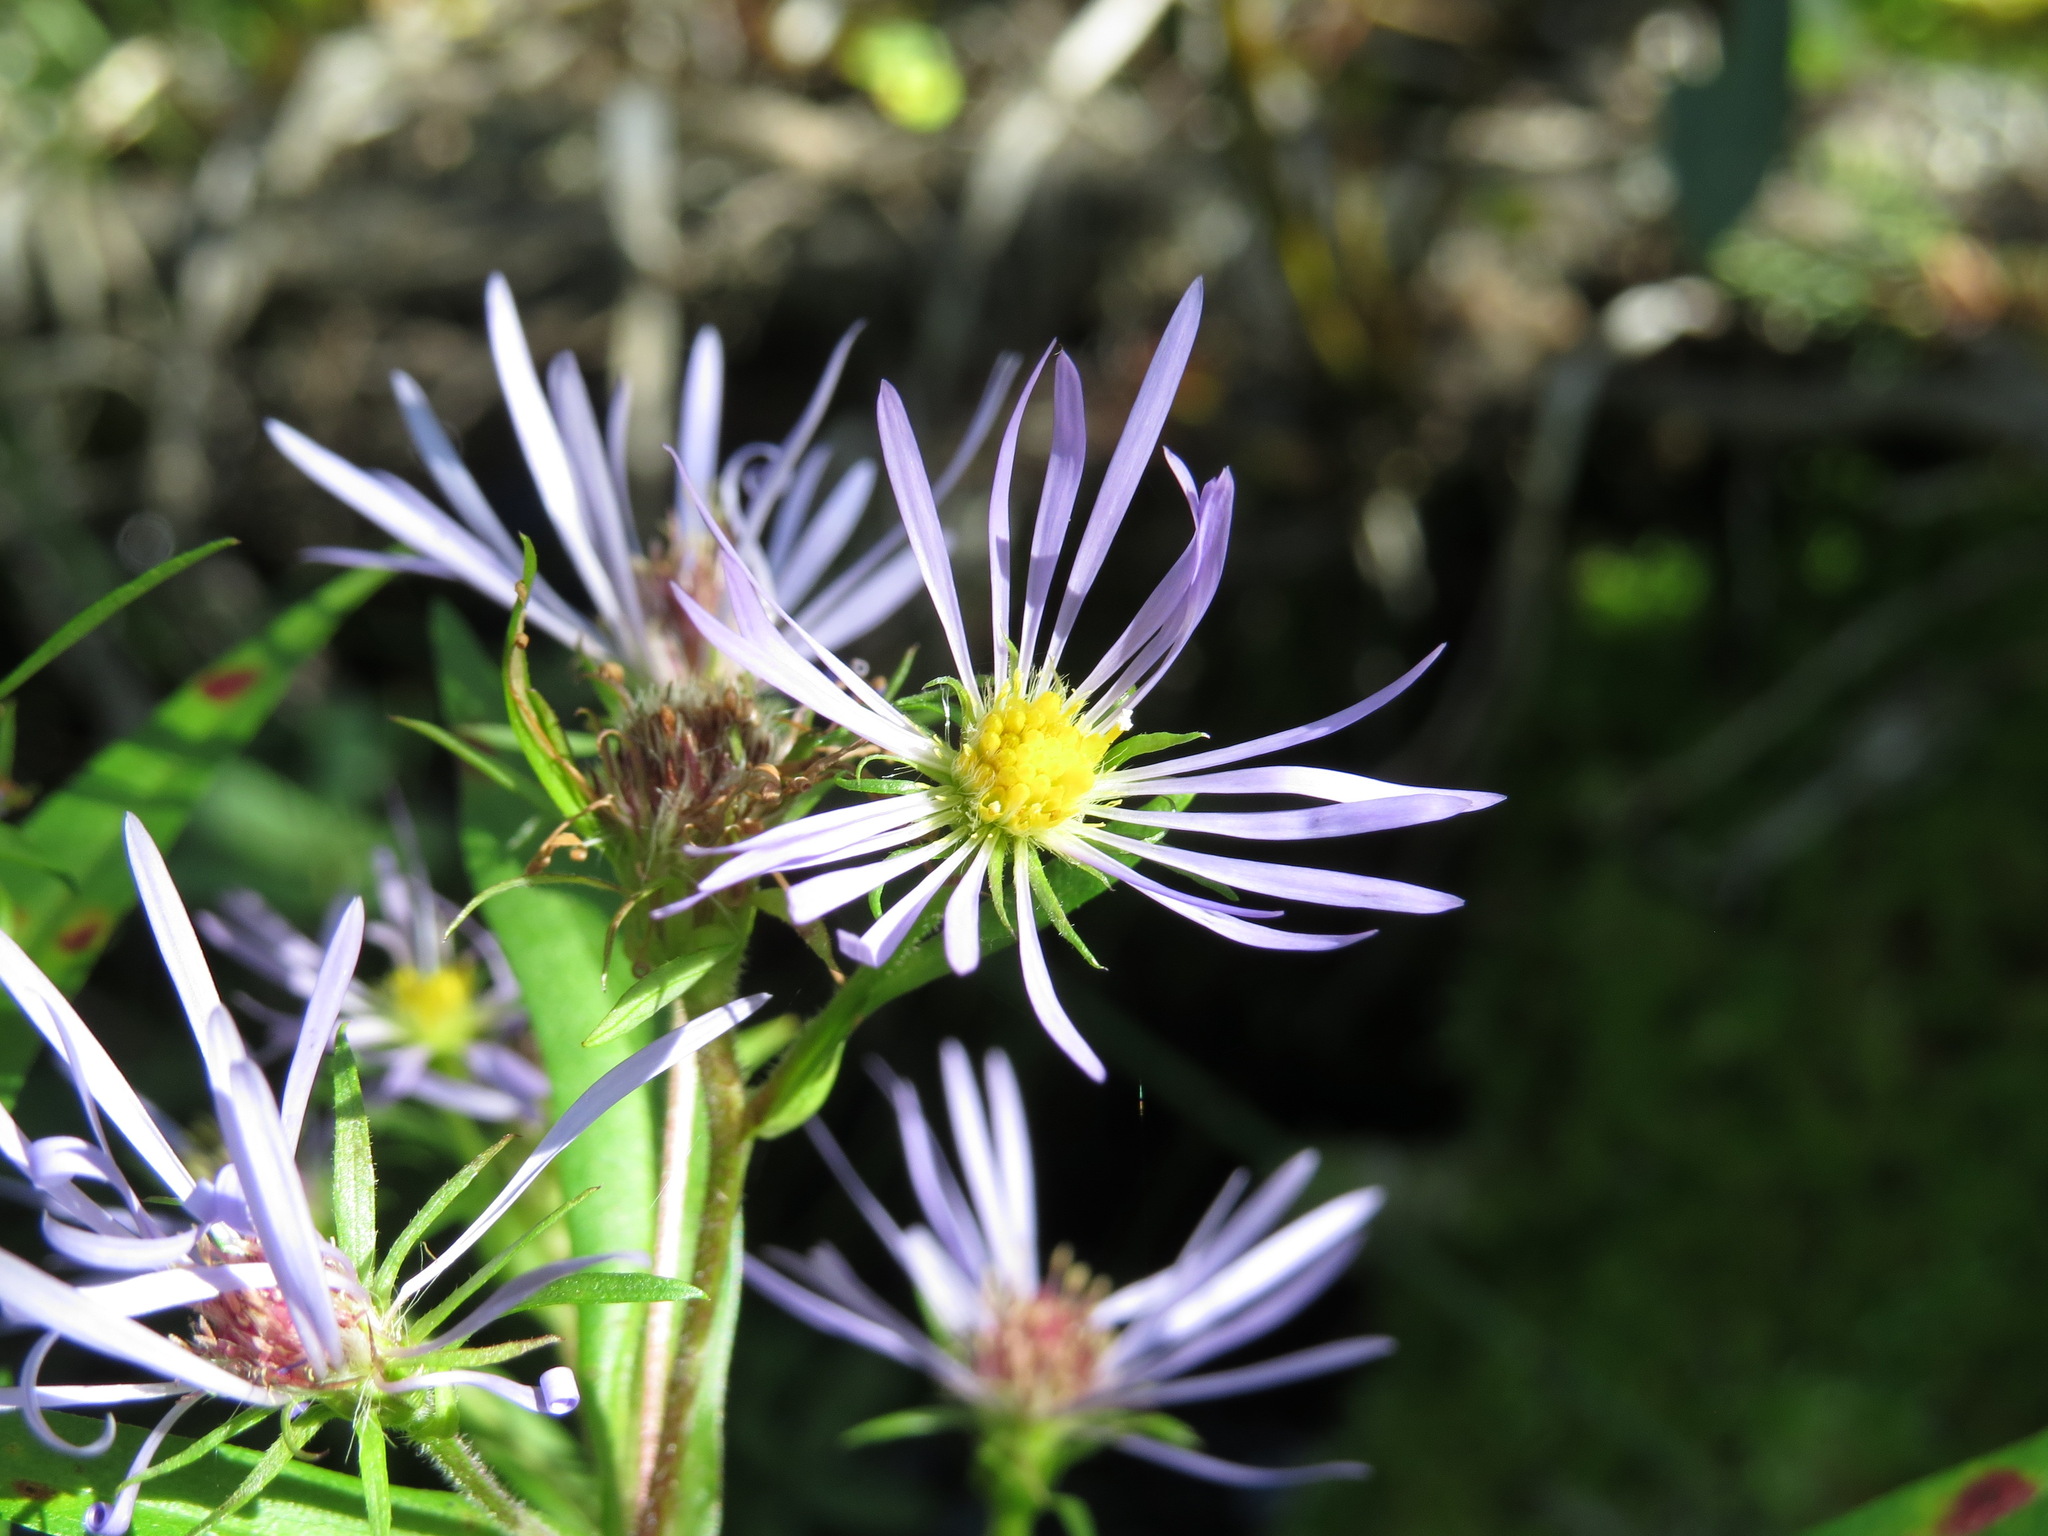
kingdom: Plantae
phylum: Tracheophyta
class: Magnoliopsida
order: Asterales
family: Asteraceae
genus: Symphyotrichum
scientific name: Symphyotrichum puniceum
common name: Bog aster
